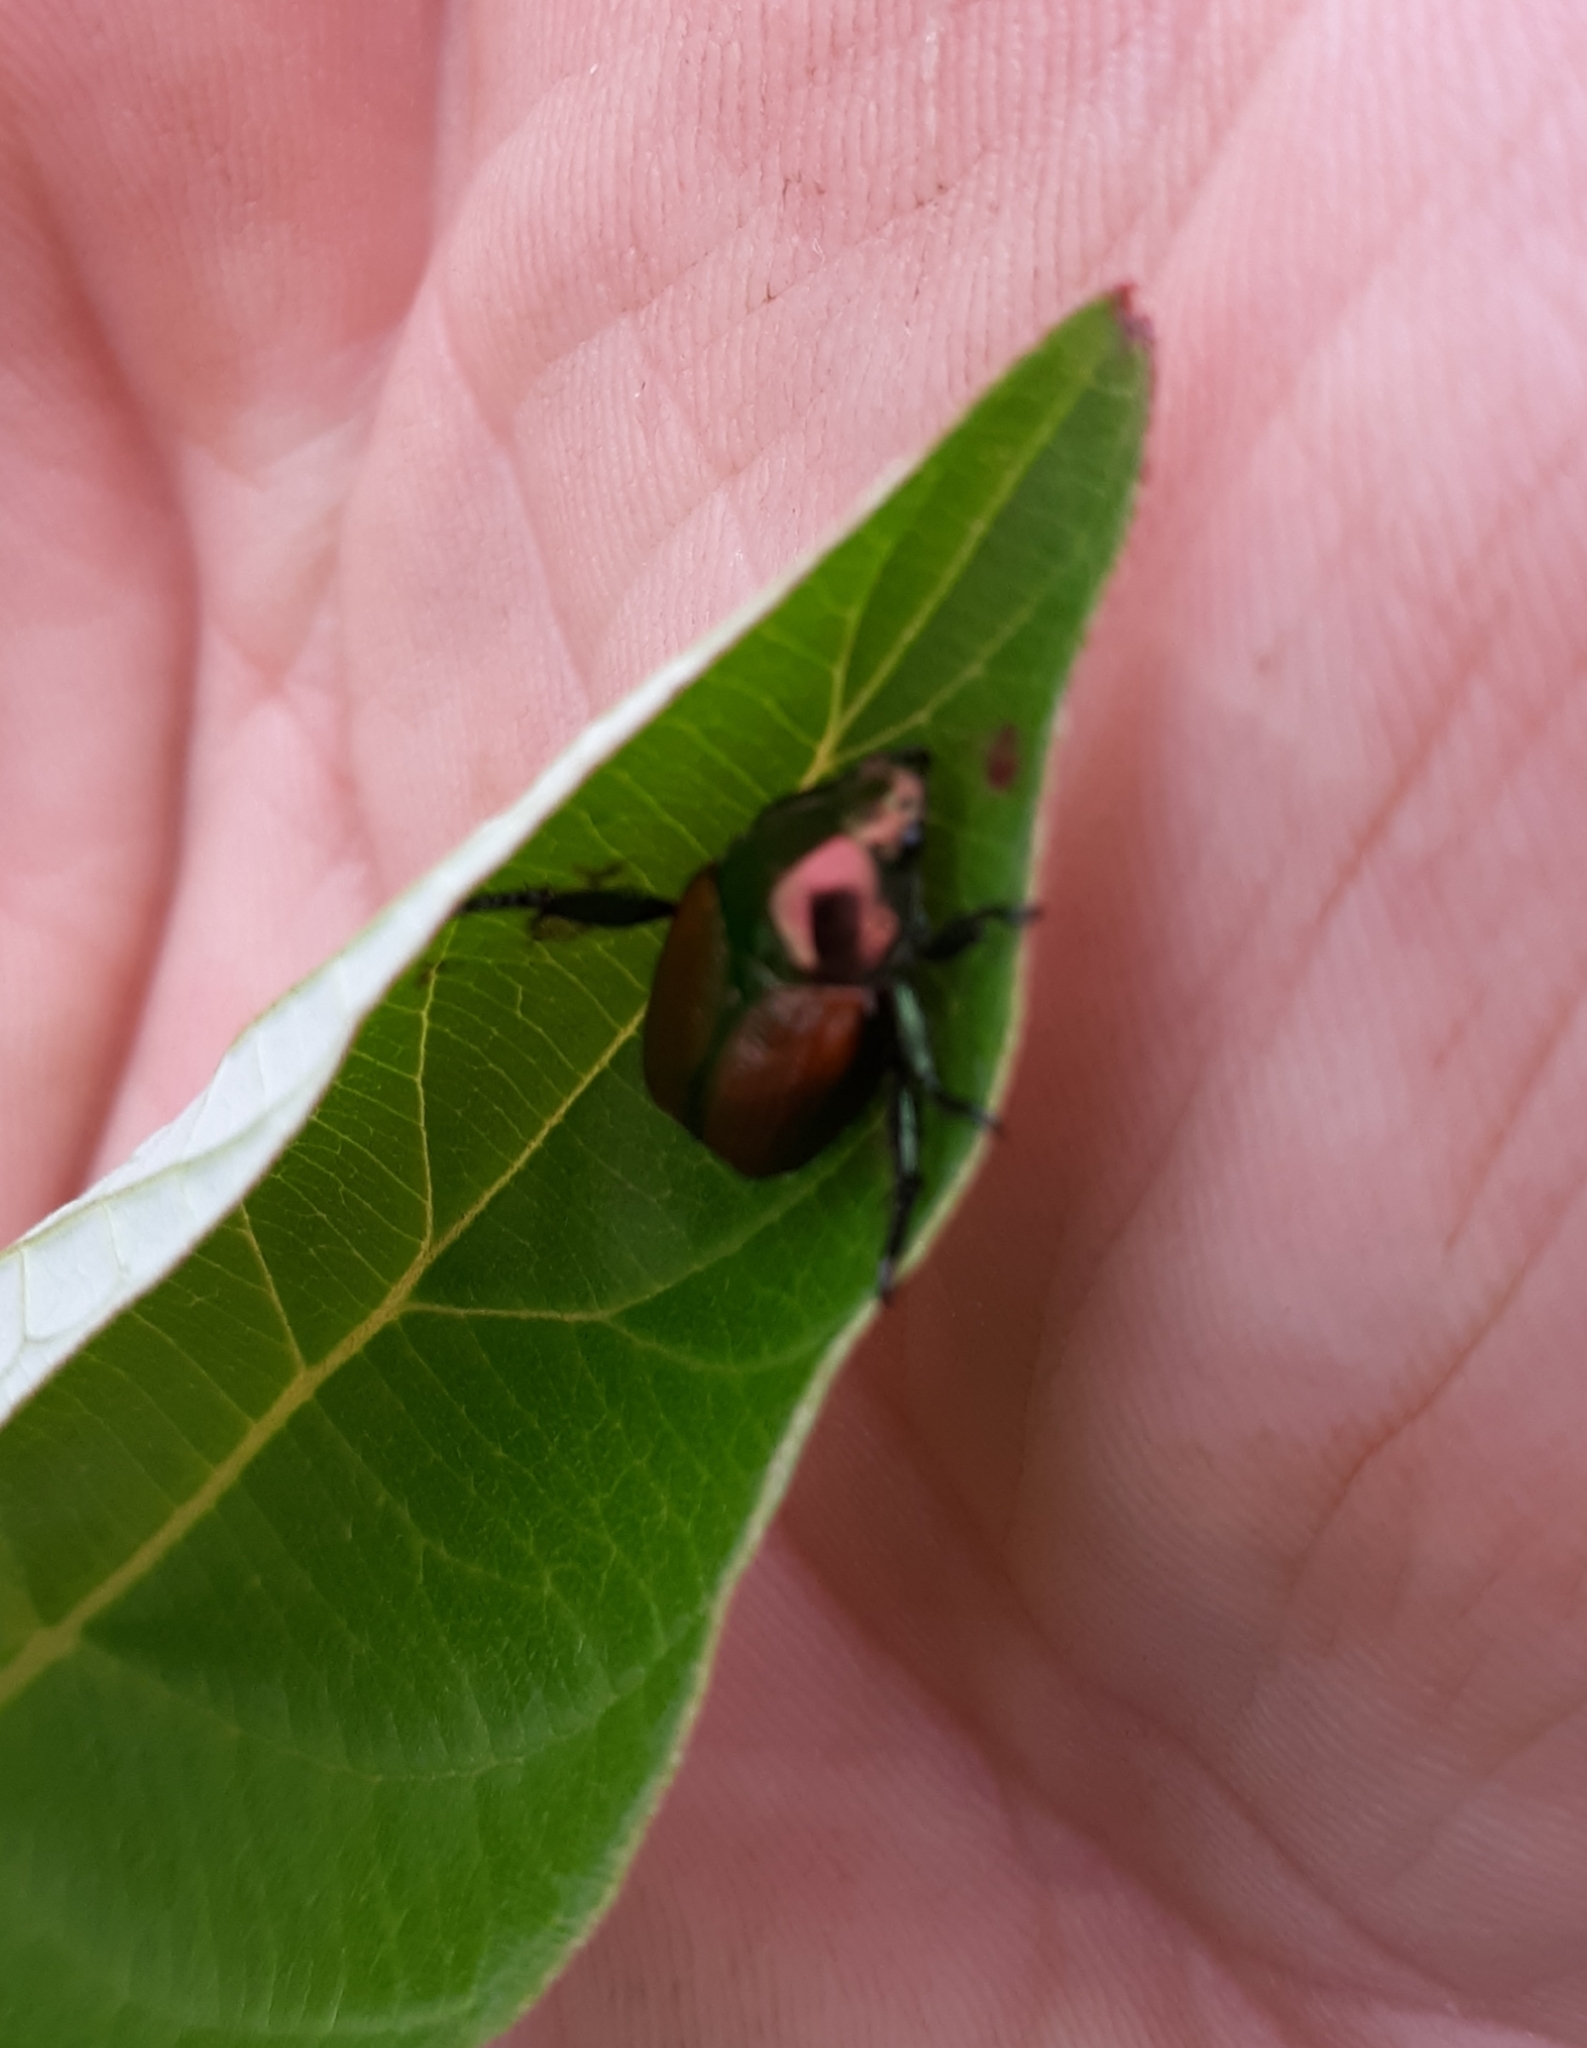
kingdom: Animalia
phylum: Arthropoda
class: Insecta
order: Coleoptera
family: Scarabaeidae
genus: Popillia
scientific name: Popillia japonica
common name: Japanese beetle
